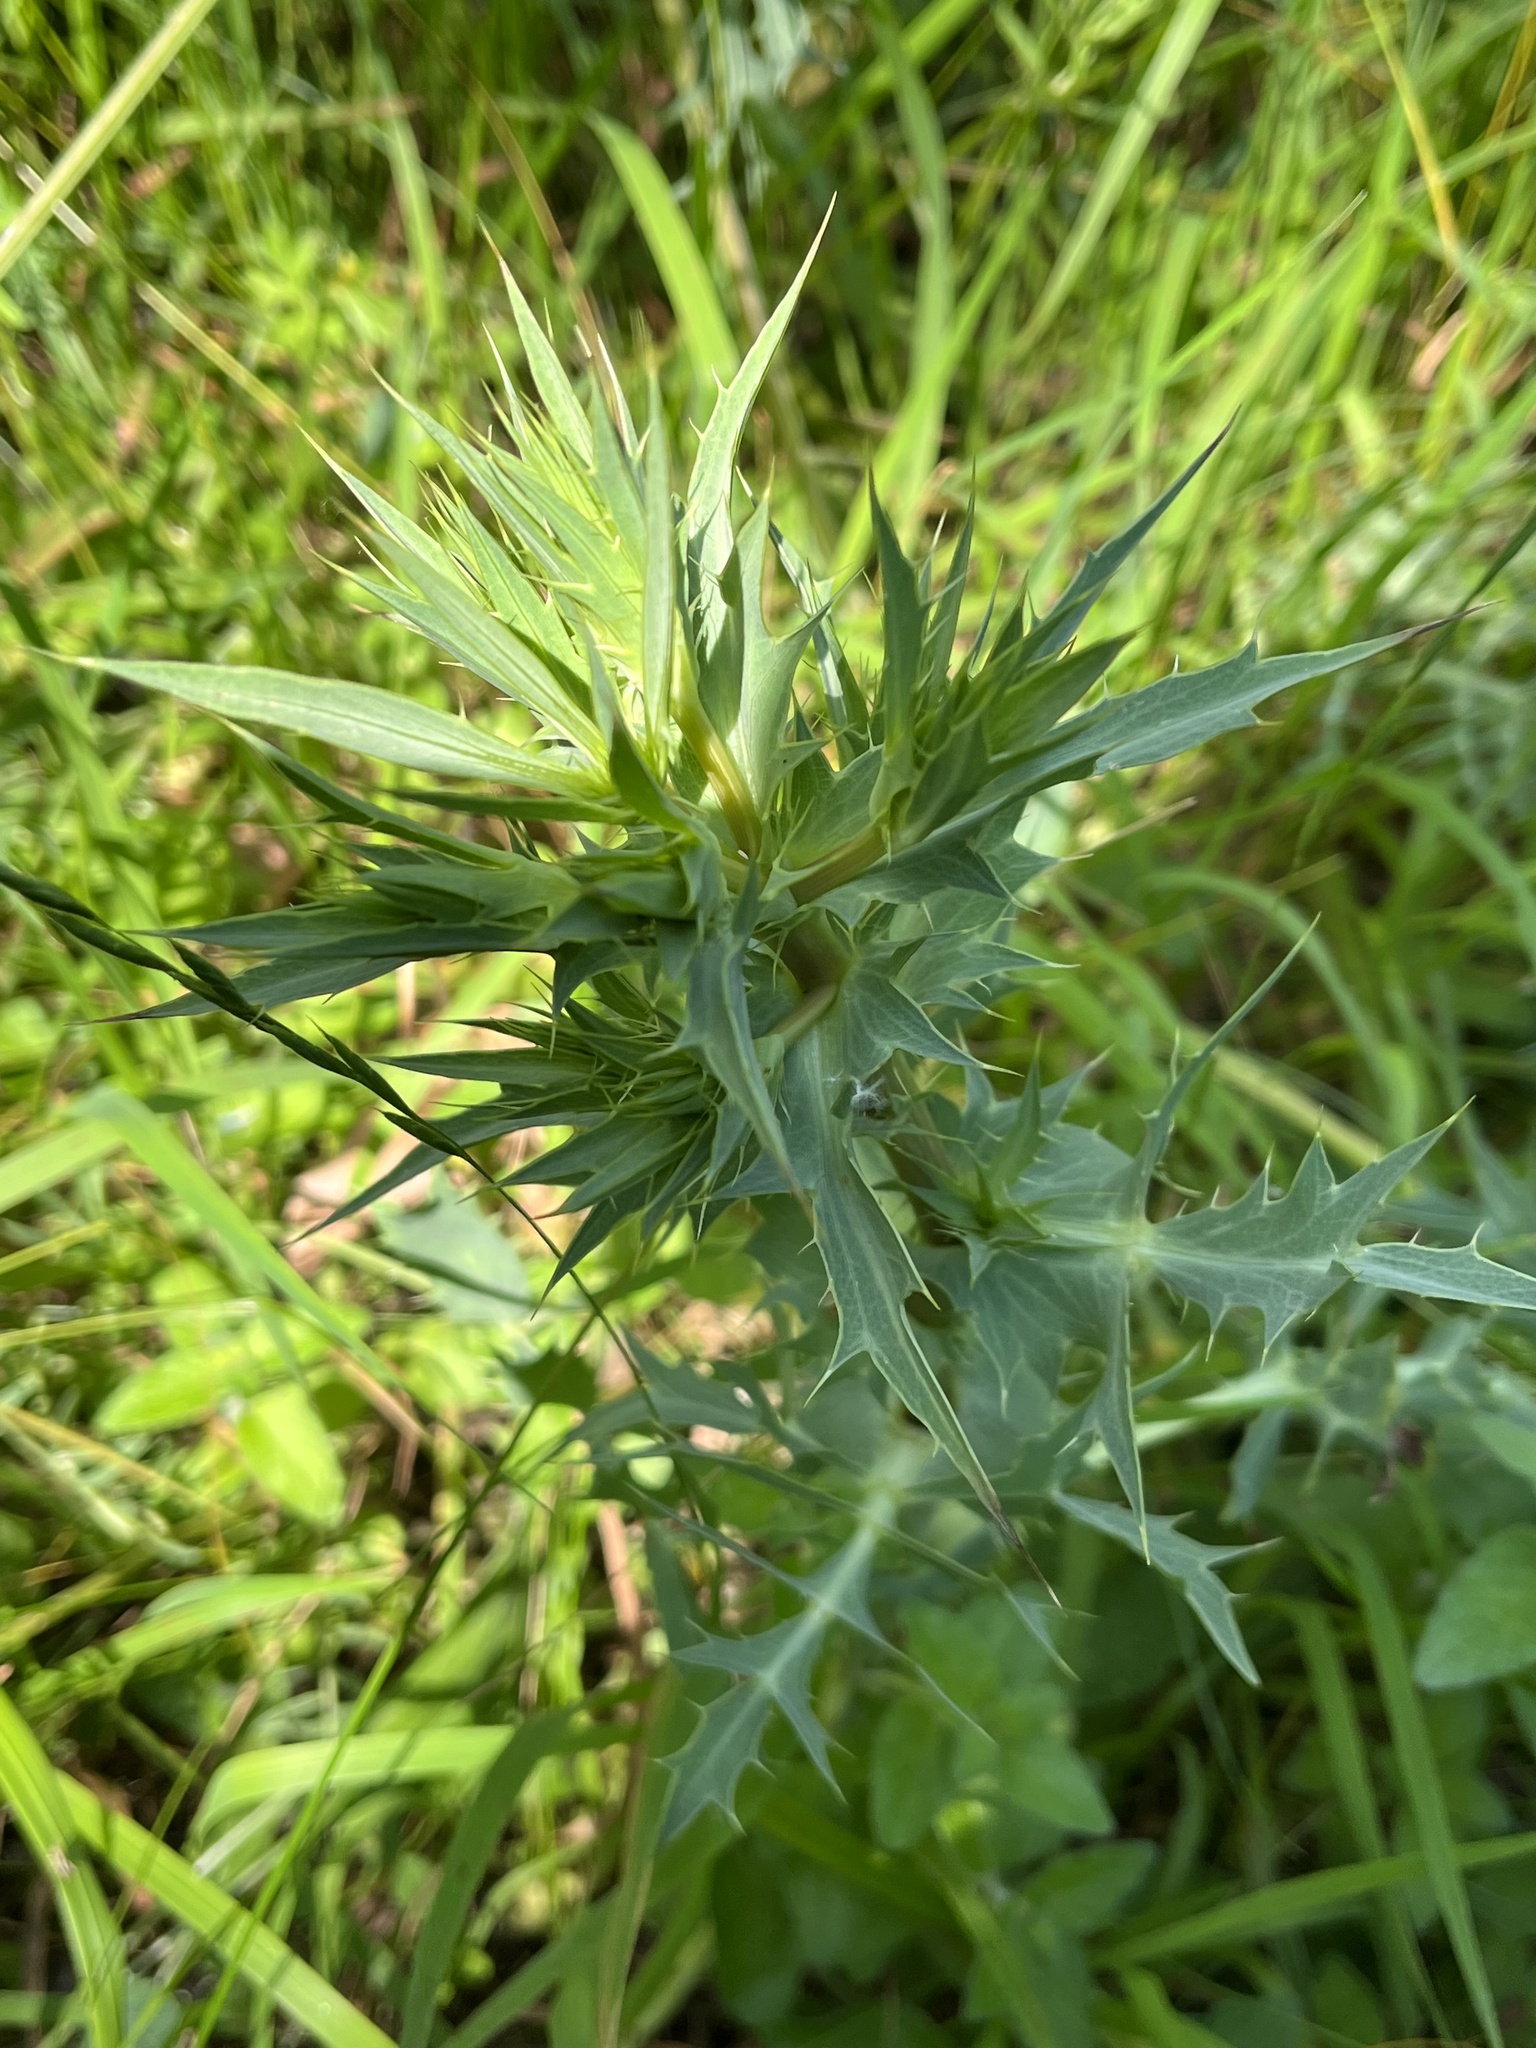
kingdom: Plantae
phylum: Tracheophyta
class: Magnoliopsida
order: Apiales
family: Apiaceae
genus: Eryngium
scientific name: Eryngium campestre
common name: Field eryngo
